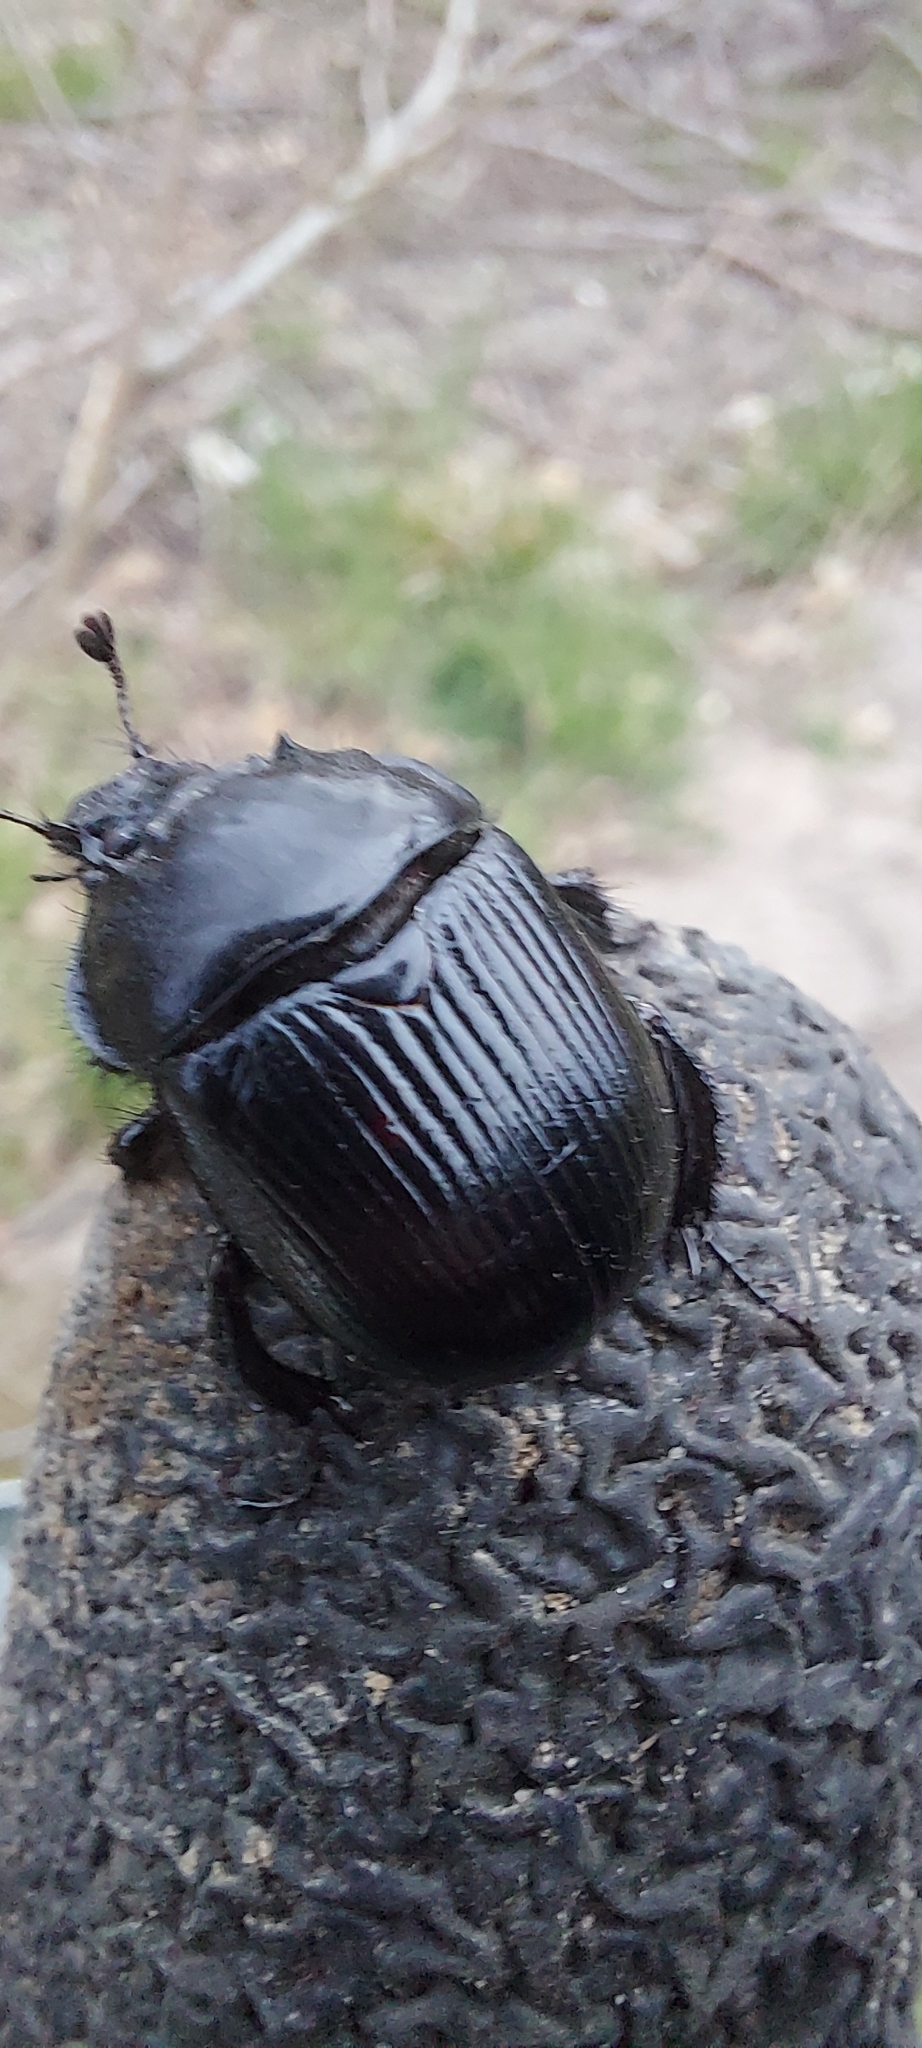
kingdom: Animalia
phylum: Arthropoda
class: Insecta
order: Coleoptera
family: Geotrupidae
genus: Typhaeus
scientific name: Typhaeus typhoeus
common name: Minotaur beetle
